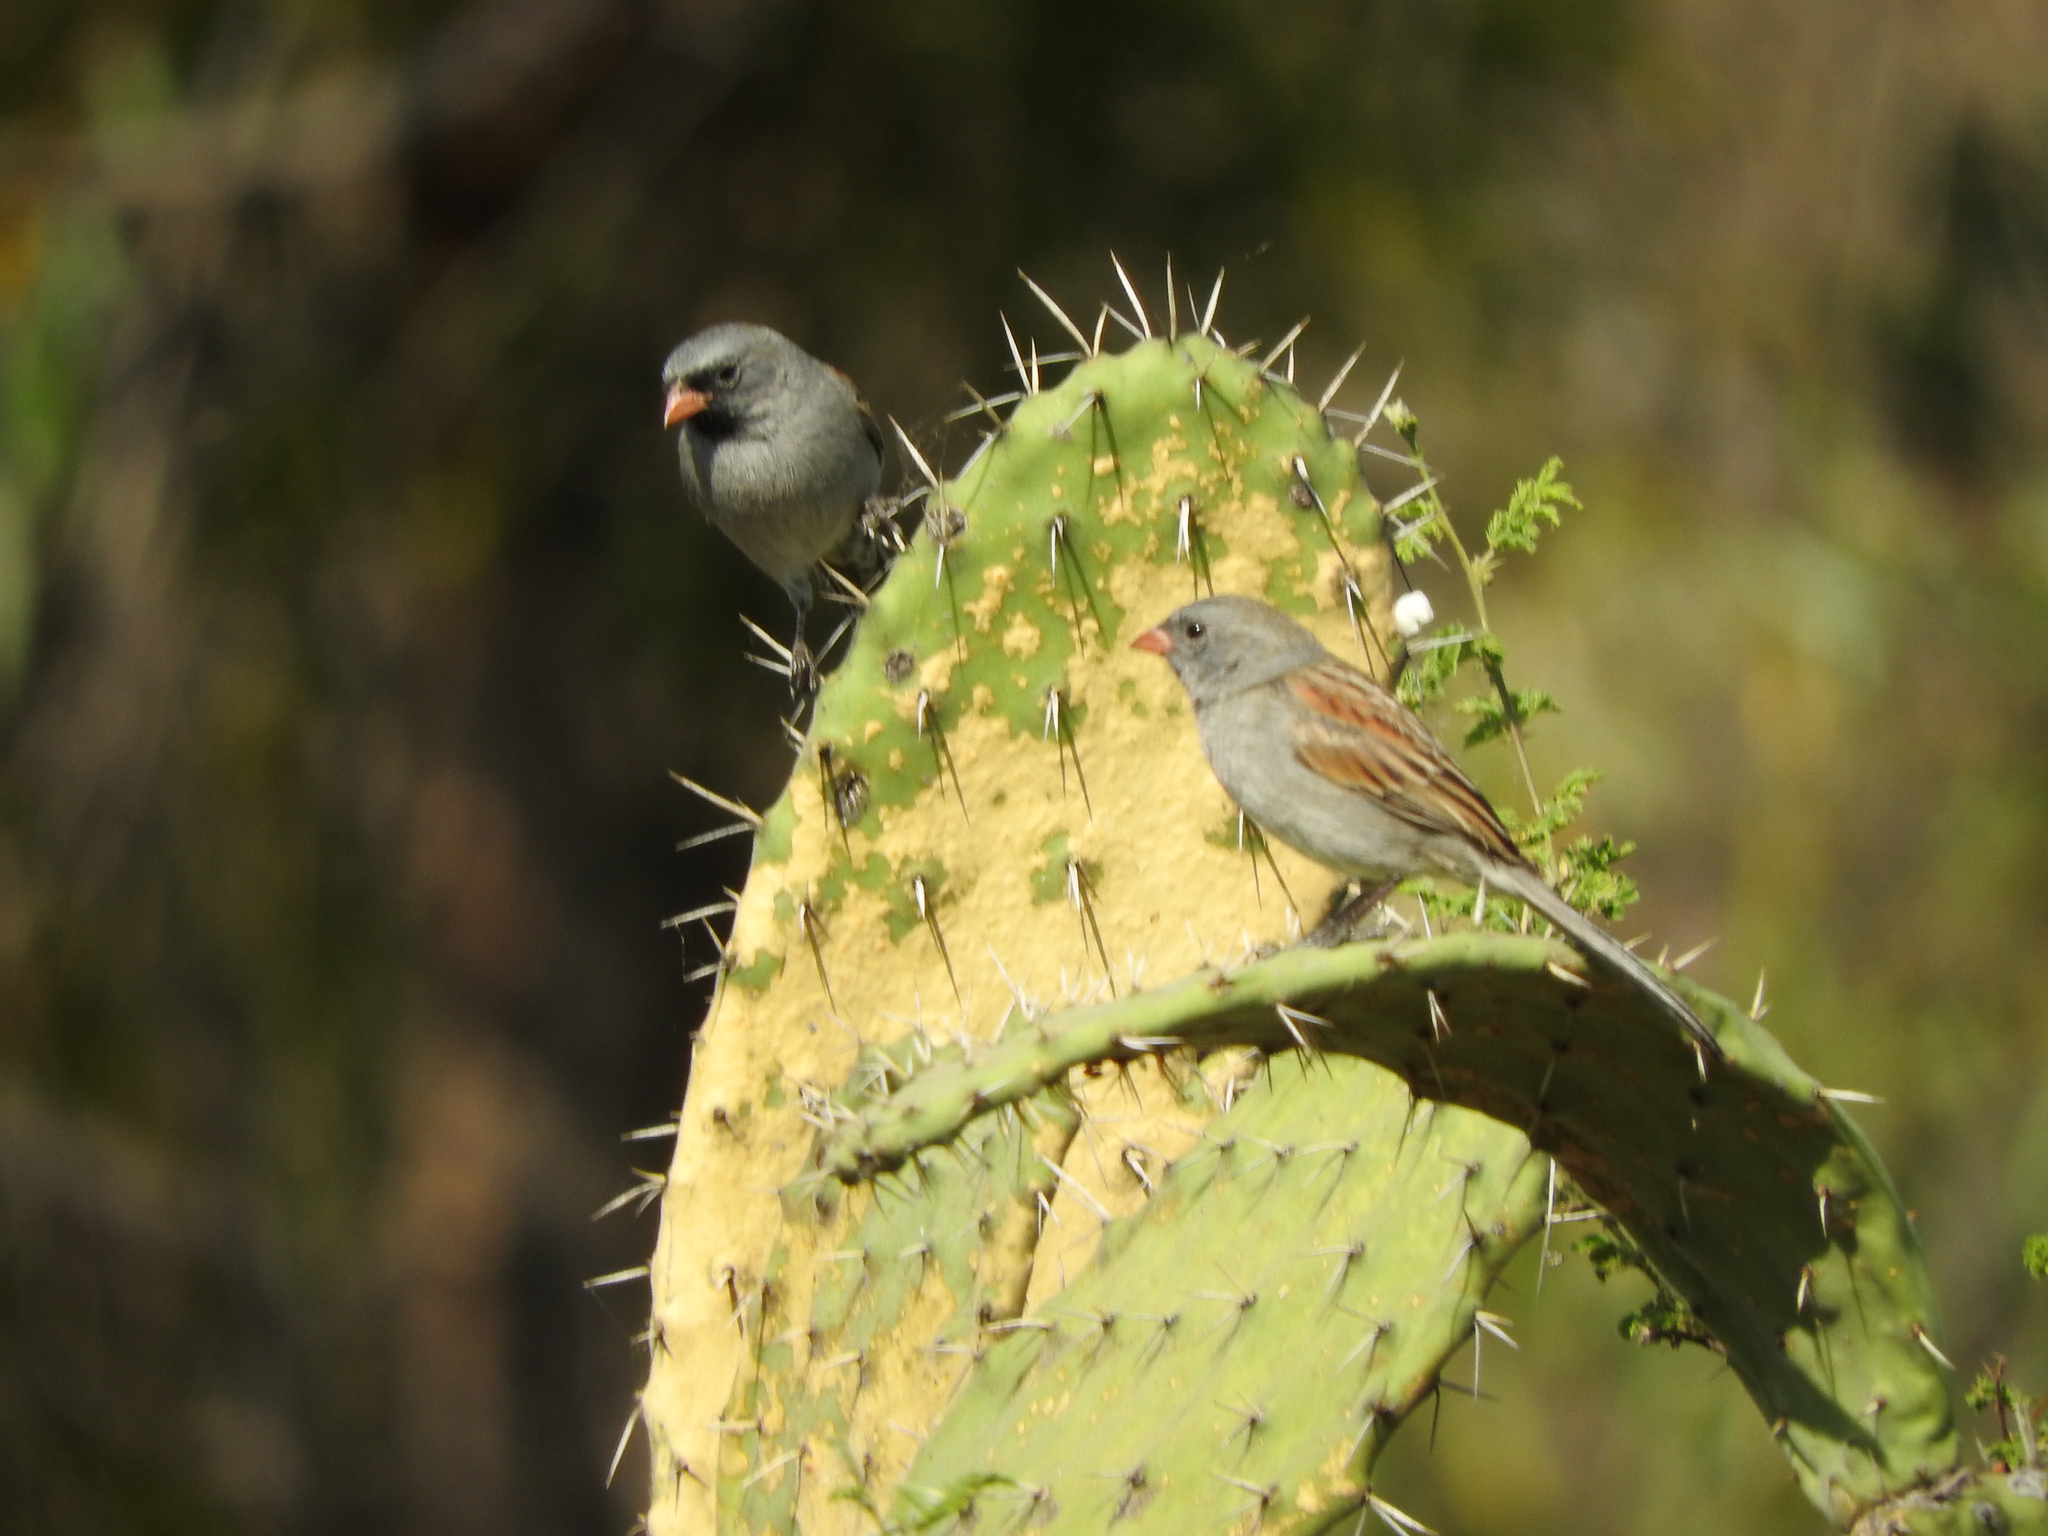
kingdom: Animalia
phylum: Chordata
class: Aves
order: Passeriformes
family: Passerellidae
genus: Spizella
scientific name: Spizella atrogularis
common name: Black-chinned sparrow
